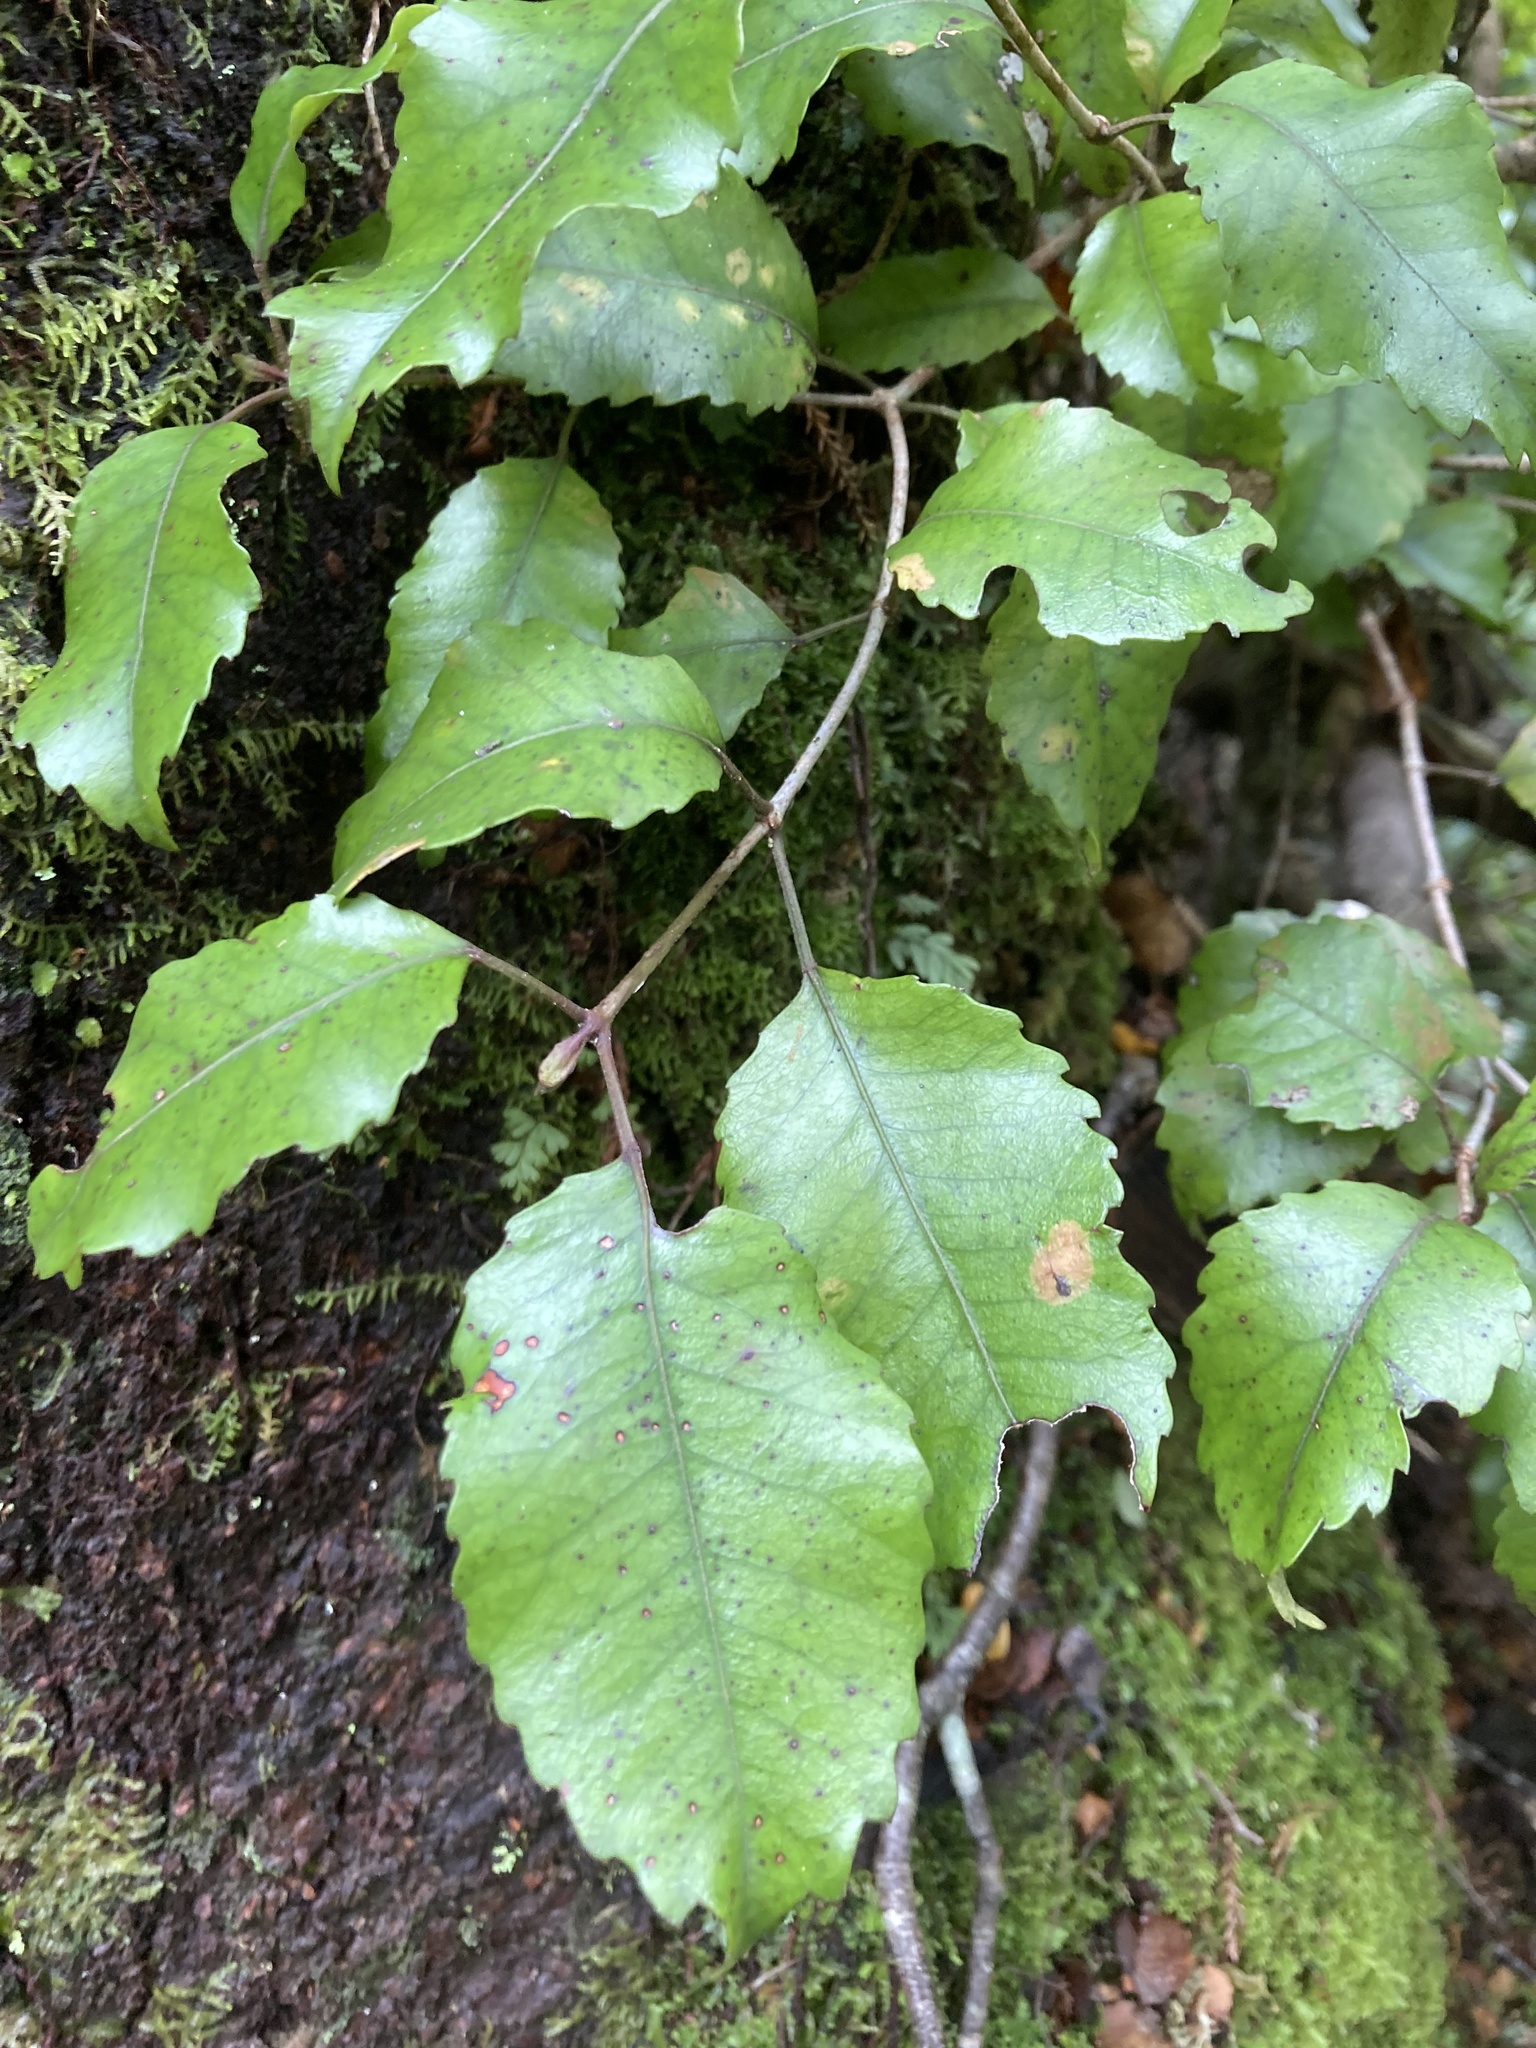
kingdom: Plantae
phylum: Tracheophyta
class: Magnoliopsida
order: Oxalidales
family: Cunoniaceae
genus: Pterophylla
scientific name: Pterophylla racemosa
